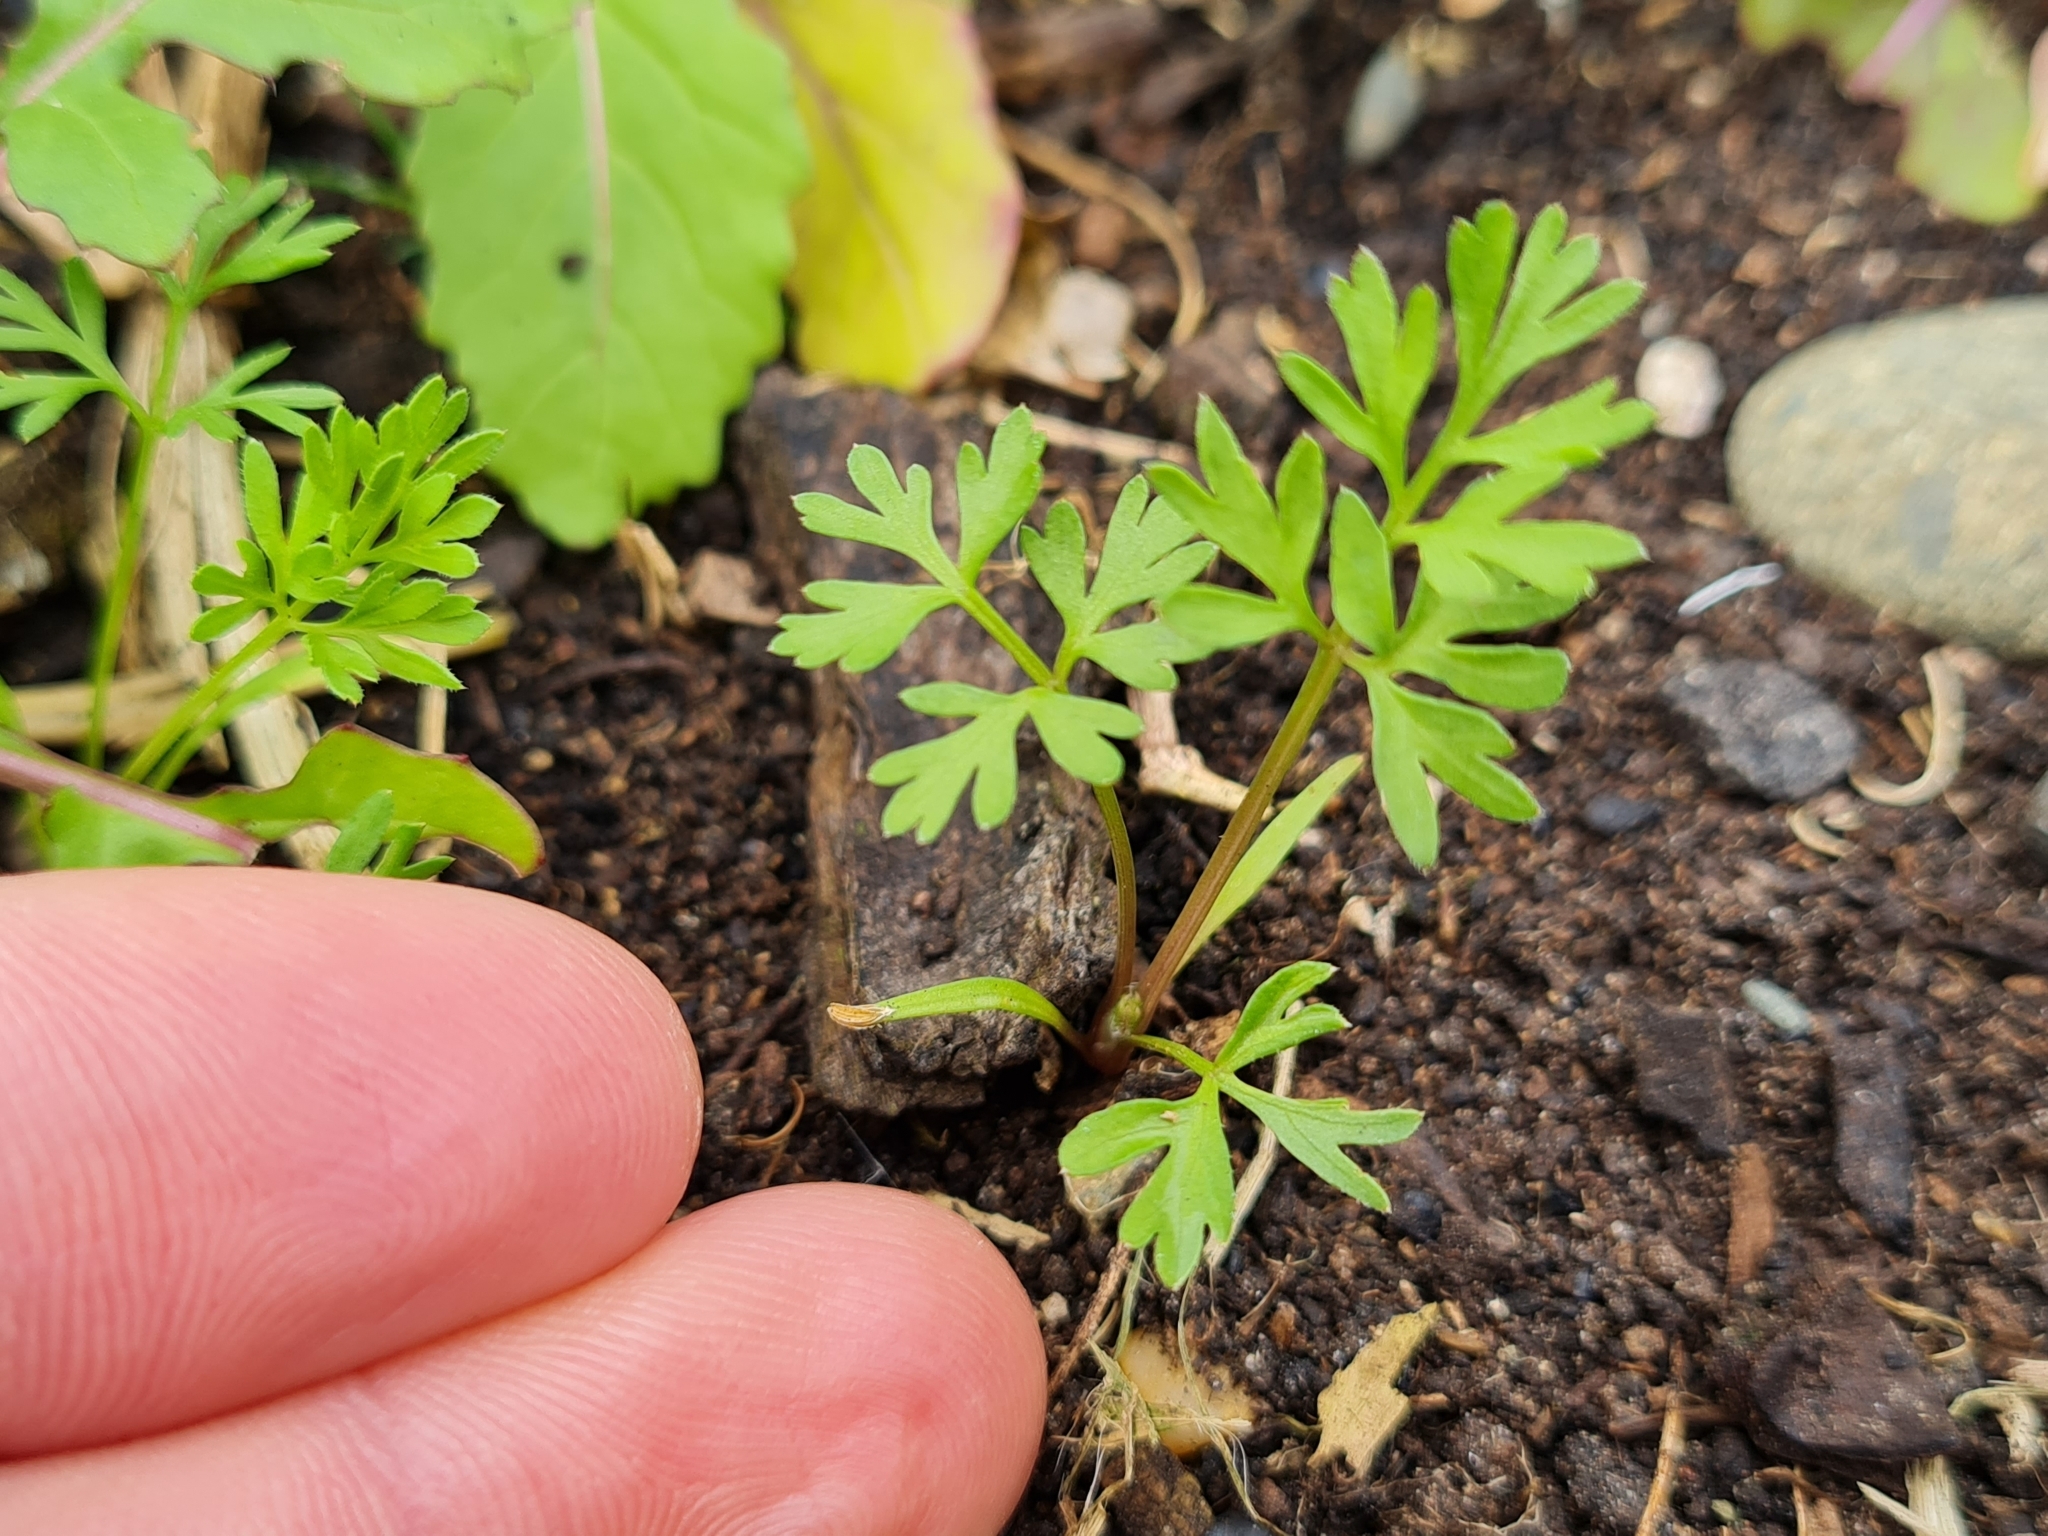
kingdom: Plantae
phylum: Tracheophyta
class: Magnoliopsida
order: Apiales
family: Apiaceae
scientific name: Apiaceae
